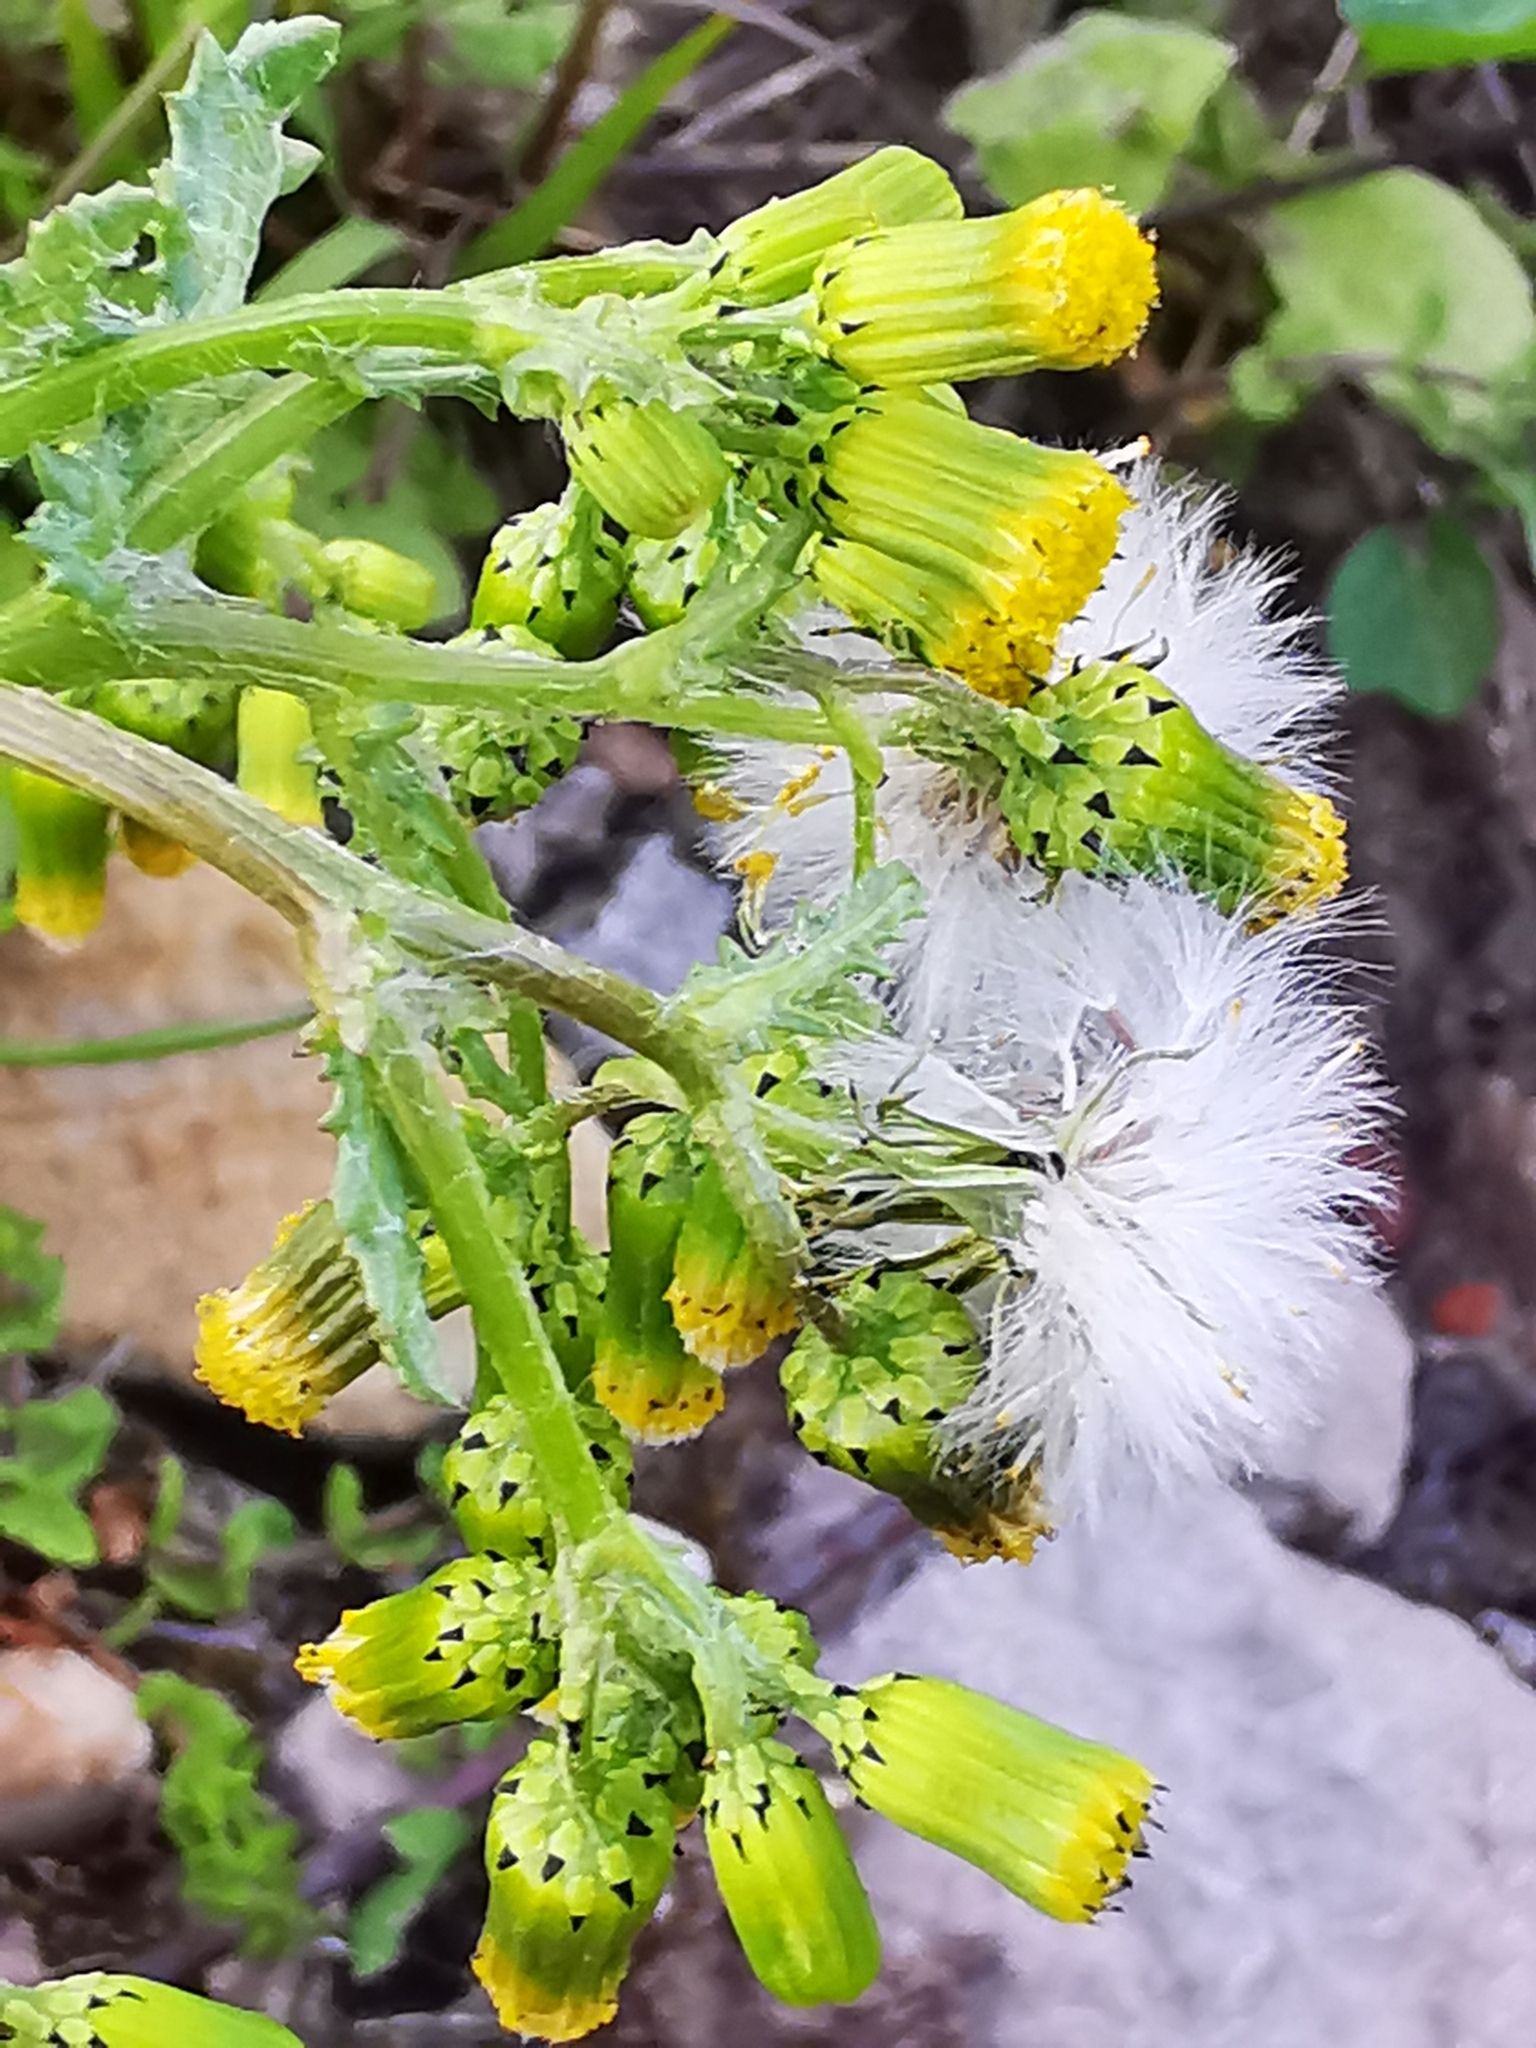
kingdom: Plantae
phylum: Tracheophyta
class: Magnoliopsida
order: Asterales
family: Asteraceae
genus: Senecio
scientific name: Senecio vulgaris
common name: Old-man-in-the-spring
